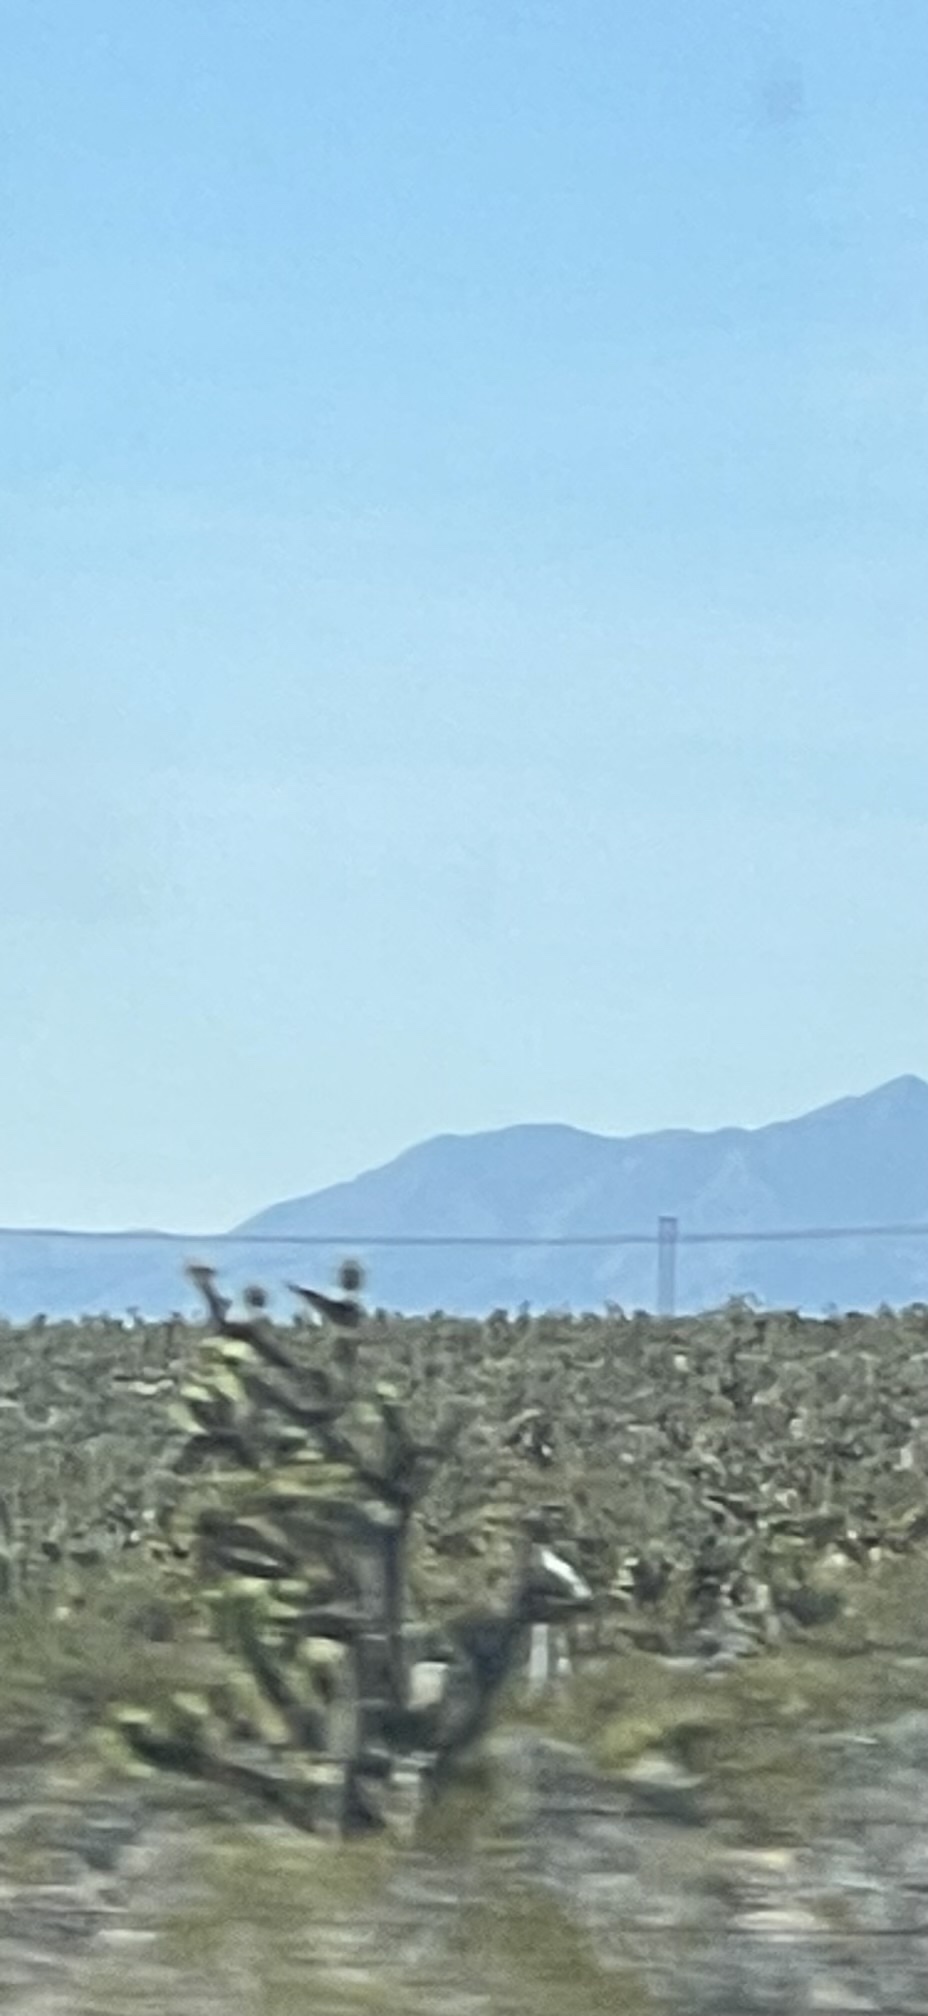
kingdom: Plantae
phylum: Tracheophyta
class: Liliopsida
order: Asparagales
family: Asparagaceae
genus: Yucca
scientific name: Yucca brevifolia
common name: Joshua tree
